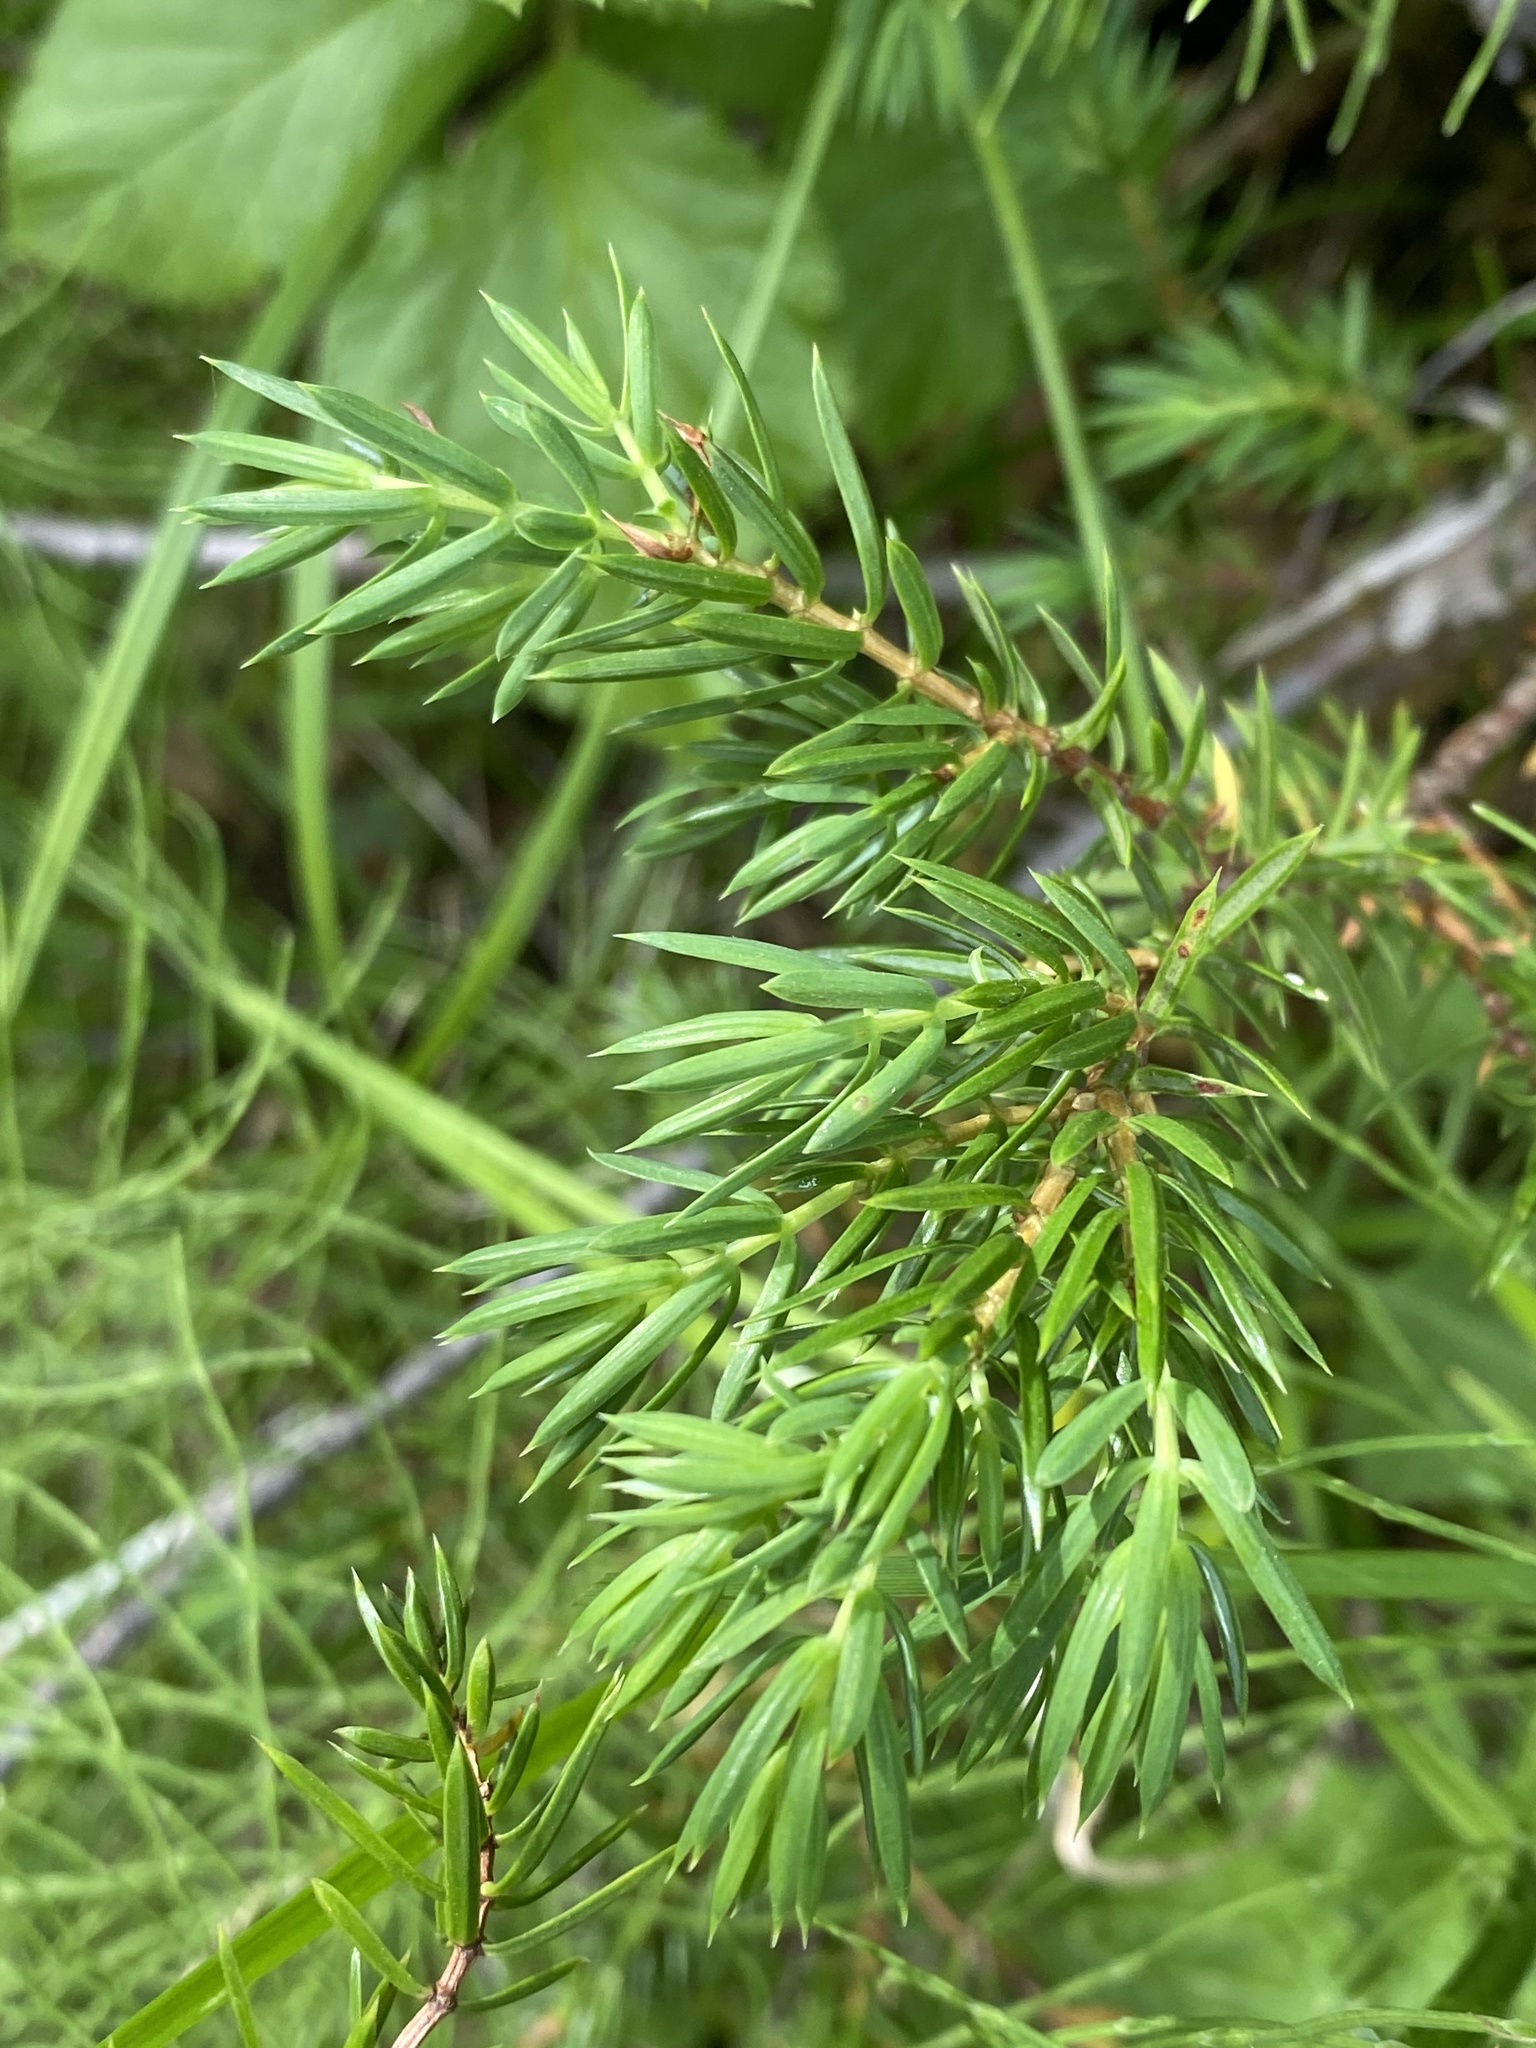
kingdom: Plantae
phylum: Tracheophyta
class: Pinopsida
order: Pinales
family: Cupressaceae
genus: Juniperus
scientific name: Juniperus communis
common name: Common juniper
